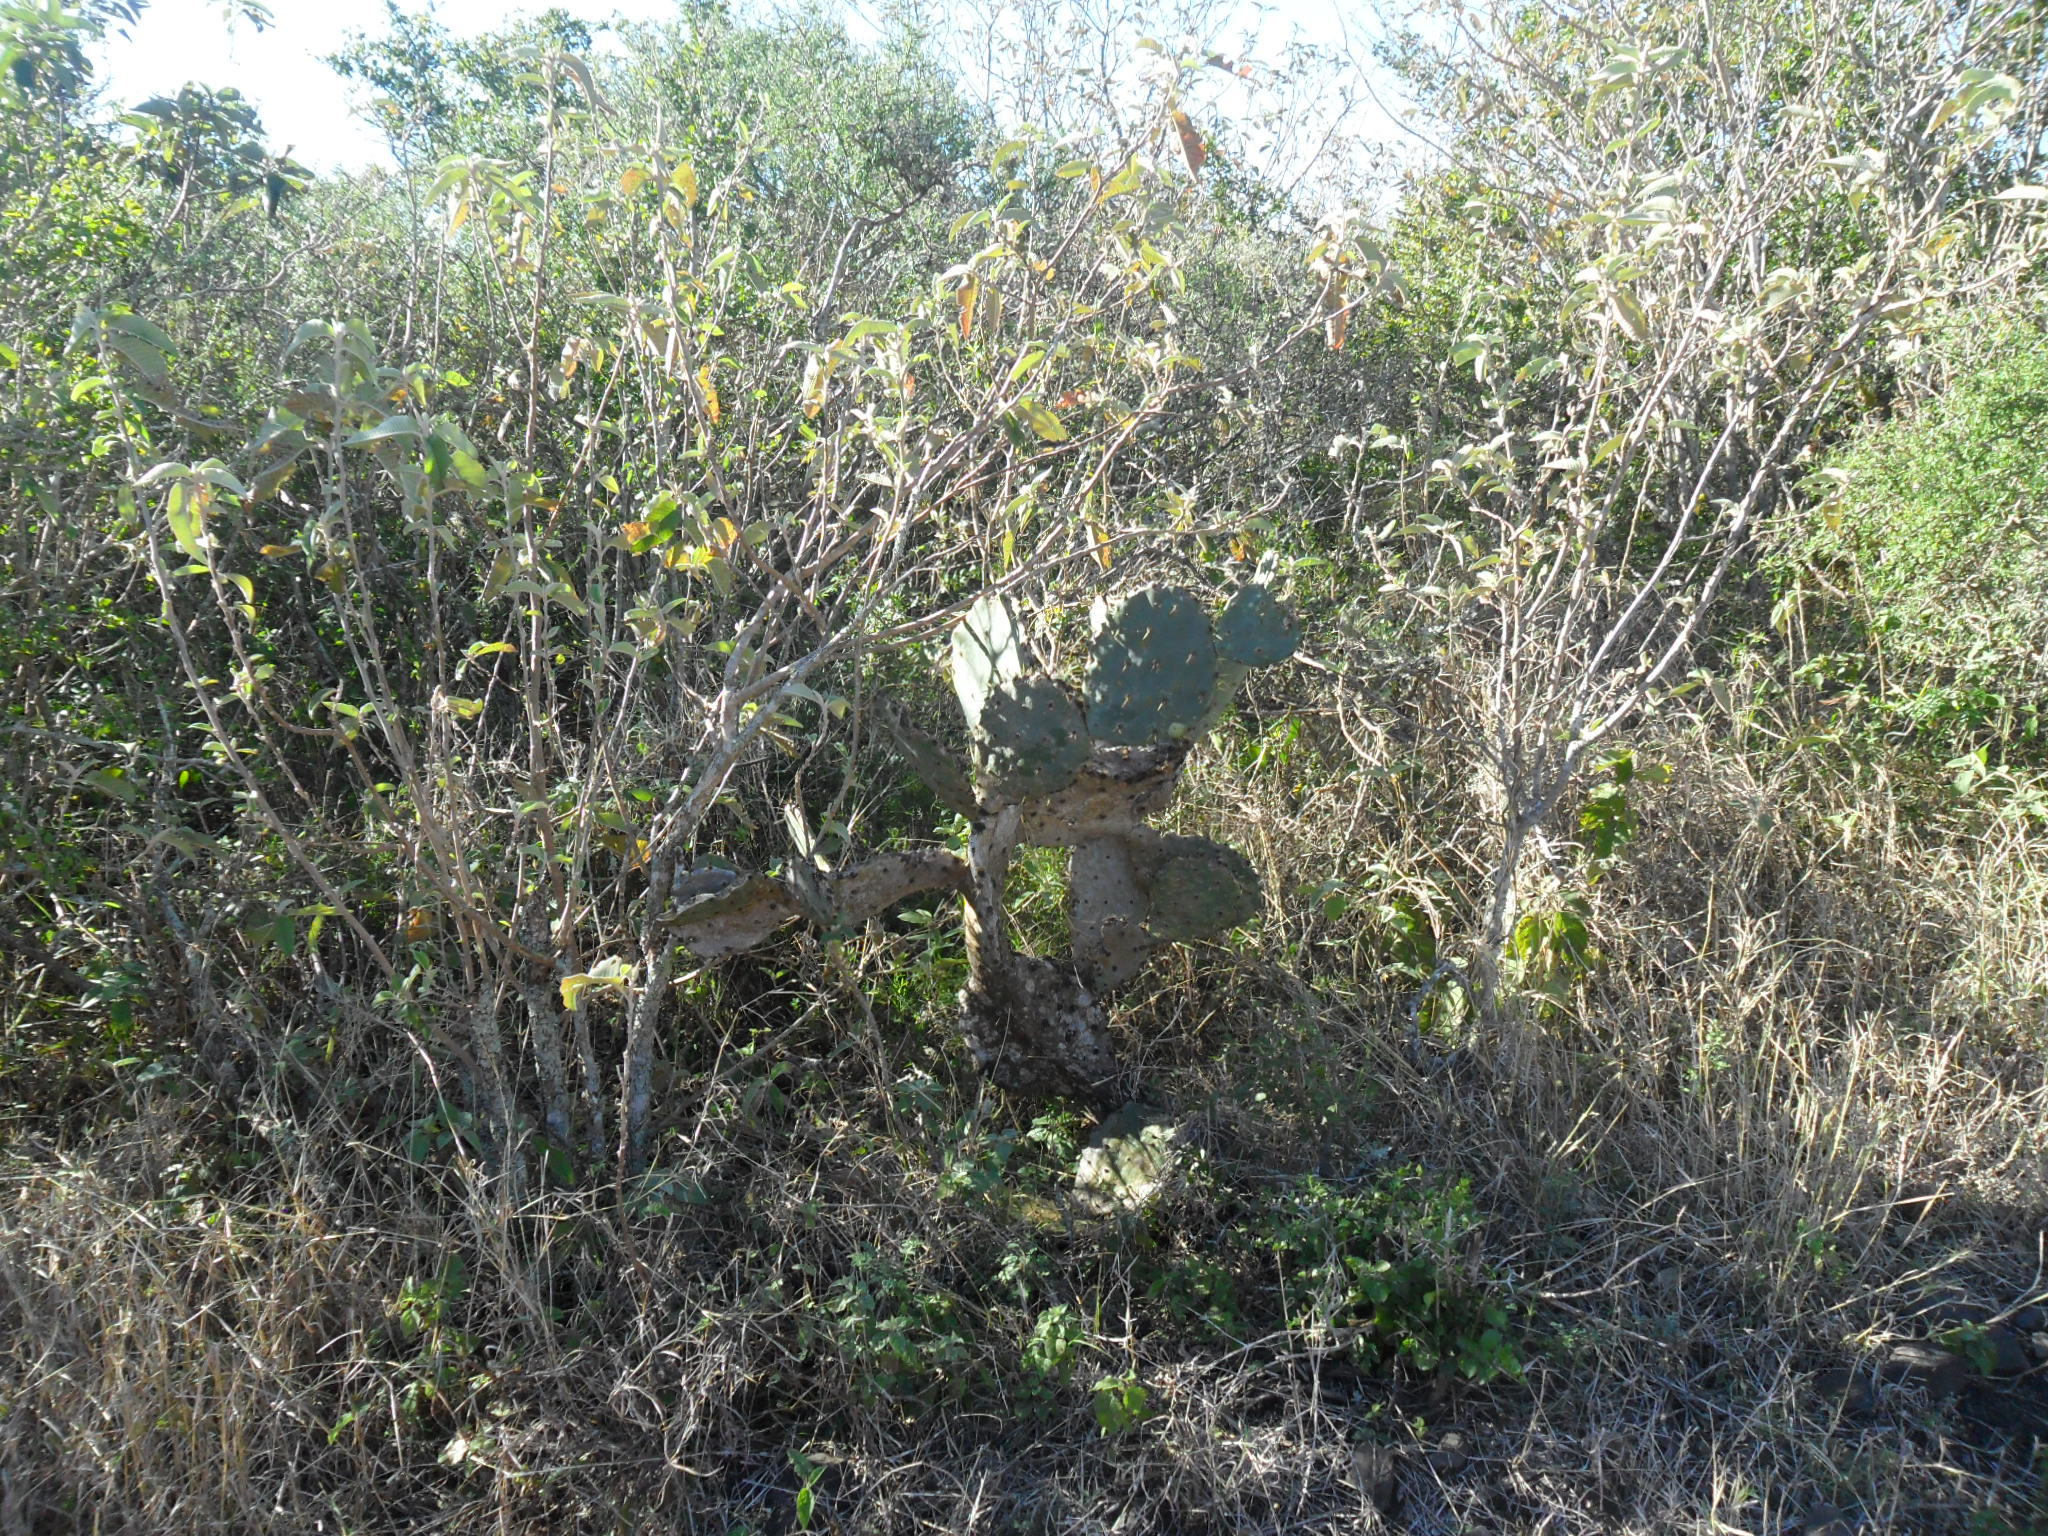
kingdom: Plantae
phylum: Tracheophyta
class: Magnoliopsida
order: Caryophyllales
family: Cactaceae
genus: Opuntia
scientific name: Opuntia stricta
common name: Erect pricklypear
